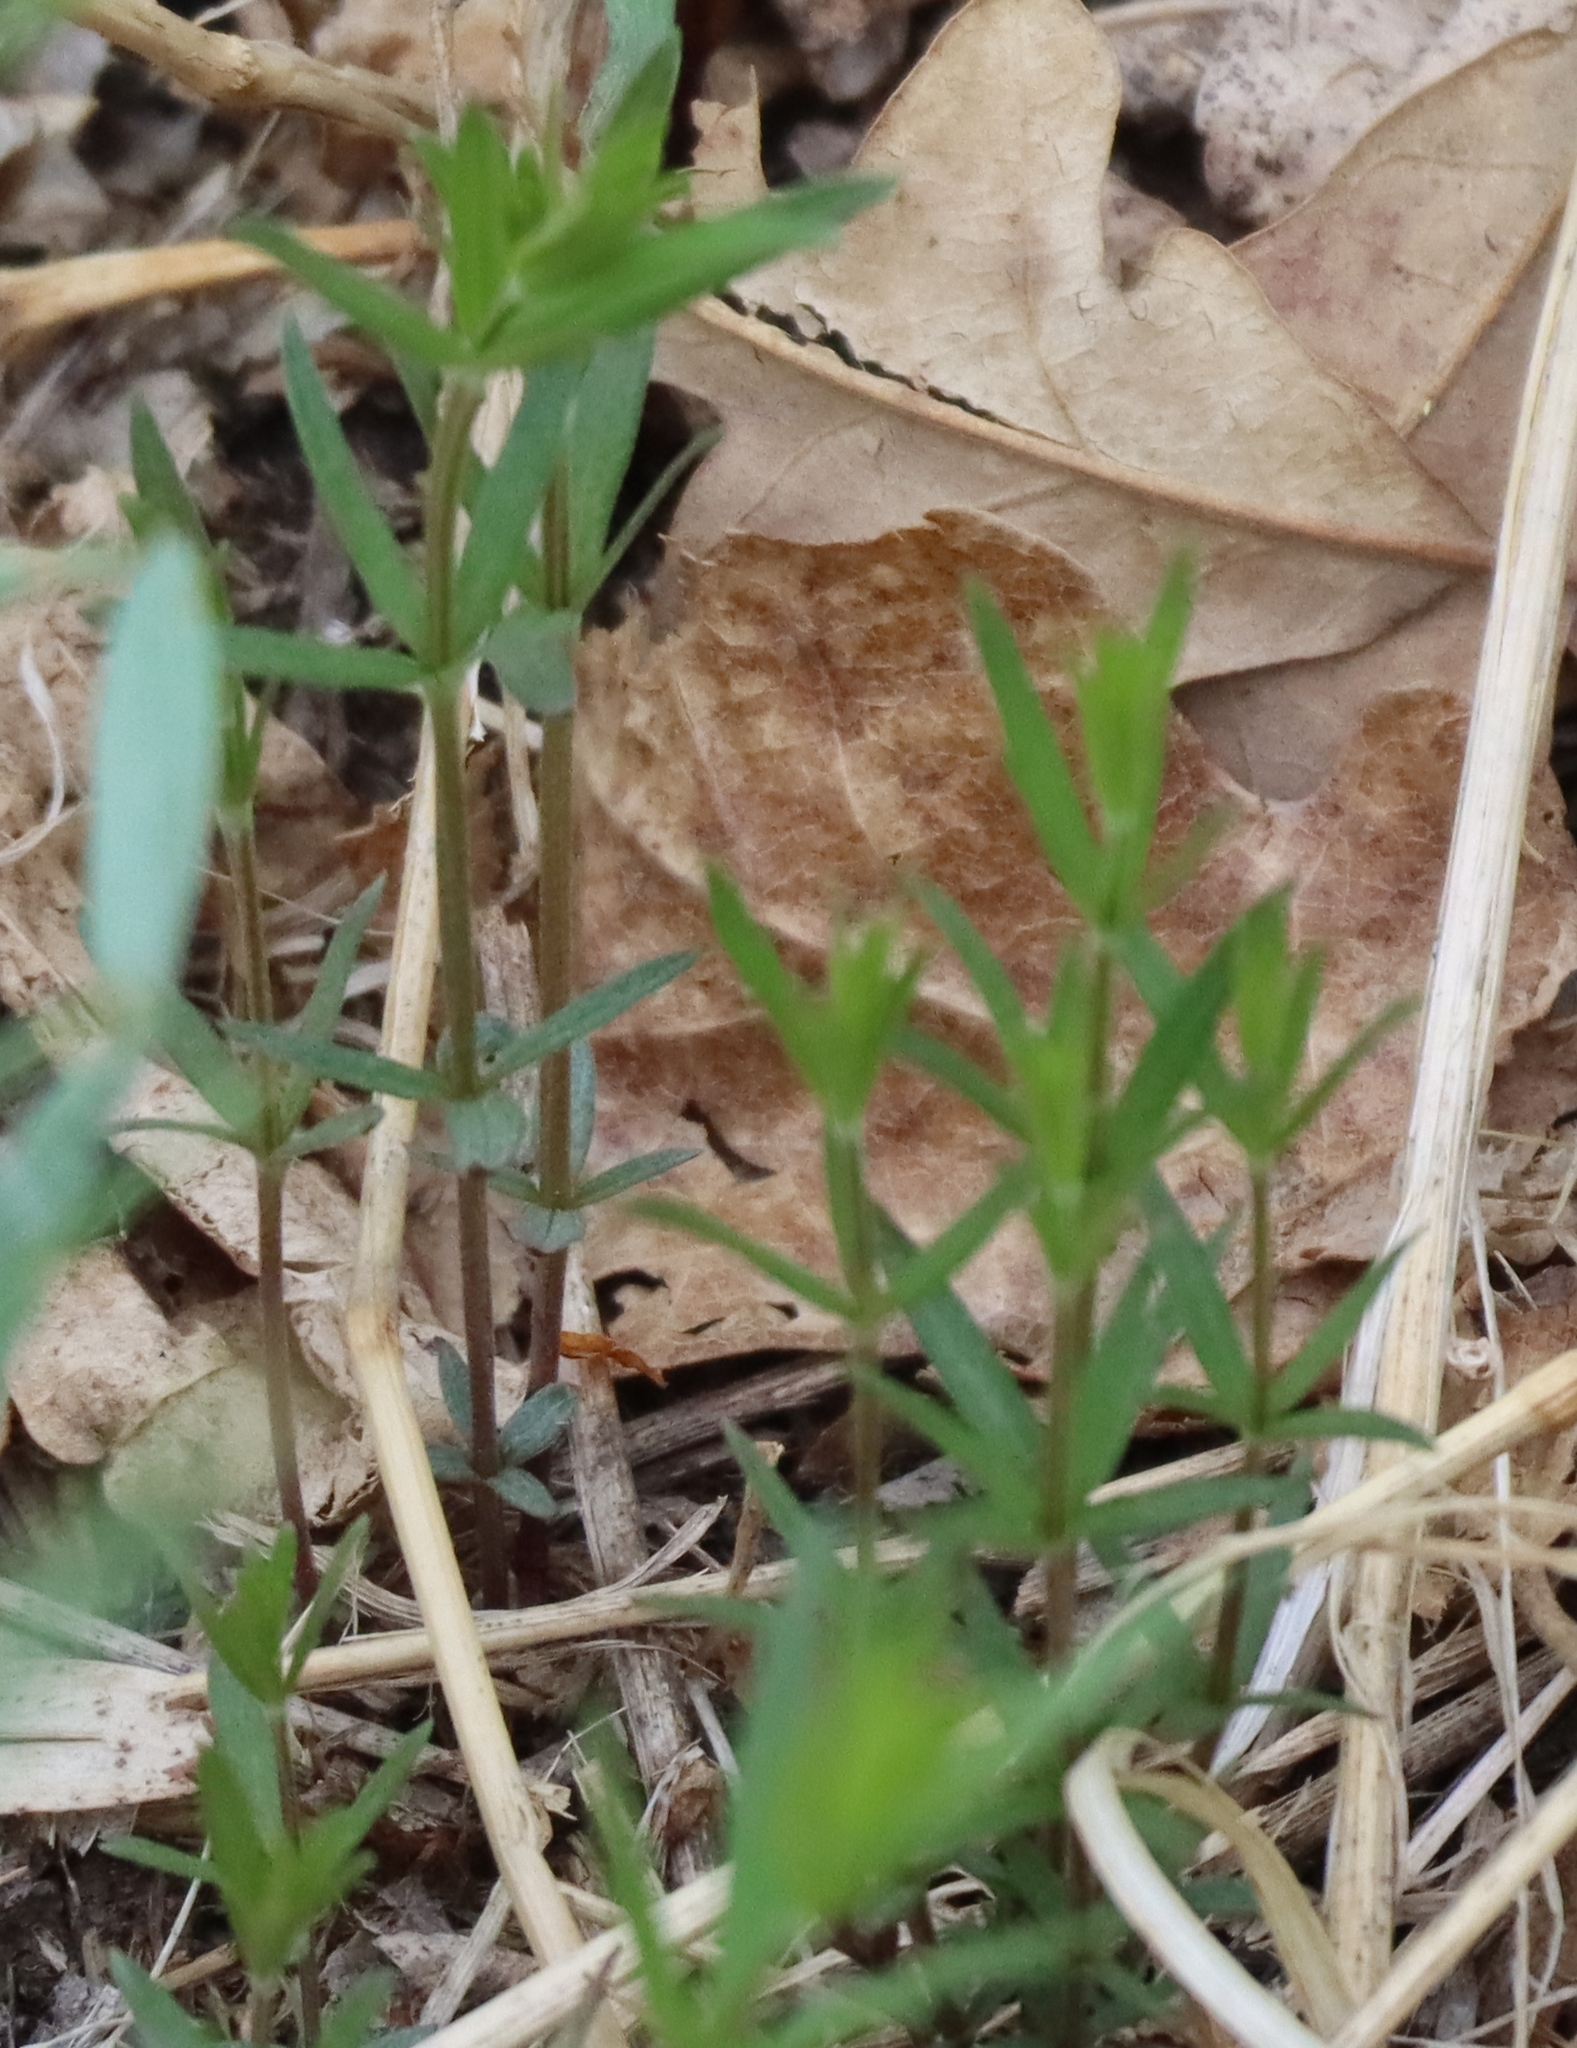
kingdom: Plantae
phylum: Tracheophyta
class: Magnoliopsida
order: Gentianales
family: Rubiaceae
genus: Galium
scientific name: Galium boreale
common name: Northern bedstraw
